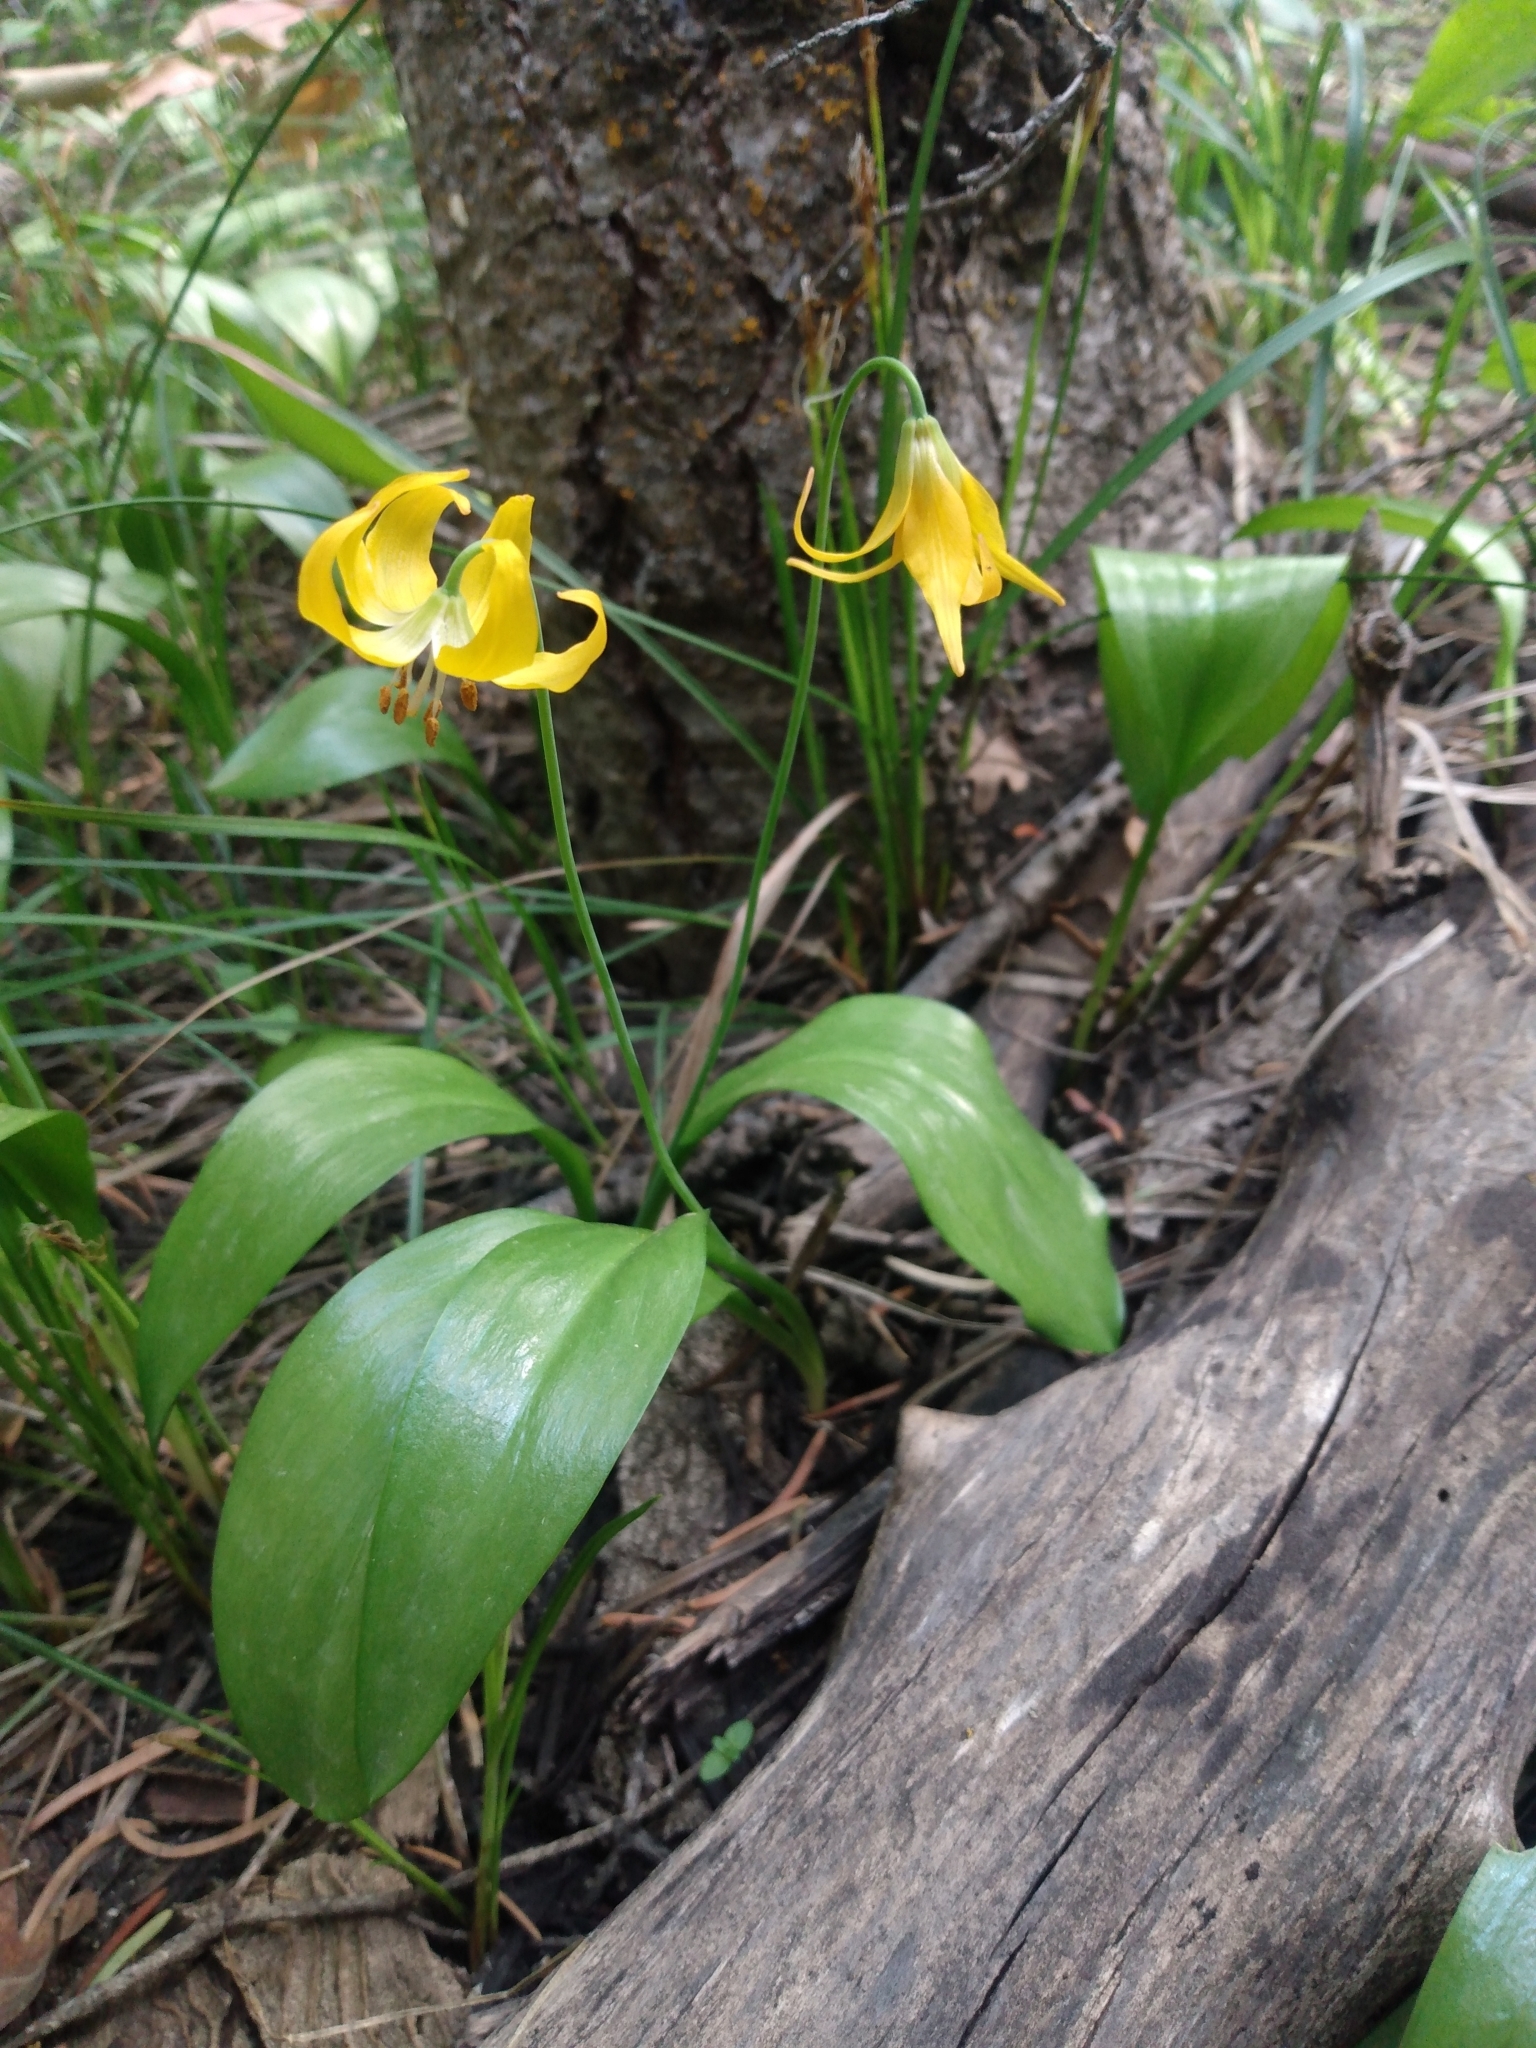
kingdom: Plantae
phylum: Tracheophyta
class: Liliopsida
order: Liliales
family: Liliaceae
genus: Erythronium
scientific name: Erythronium grandiflorum
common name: Avalanche-lily
